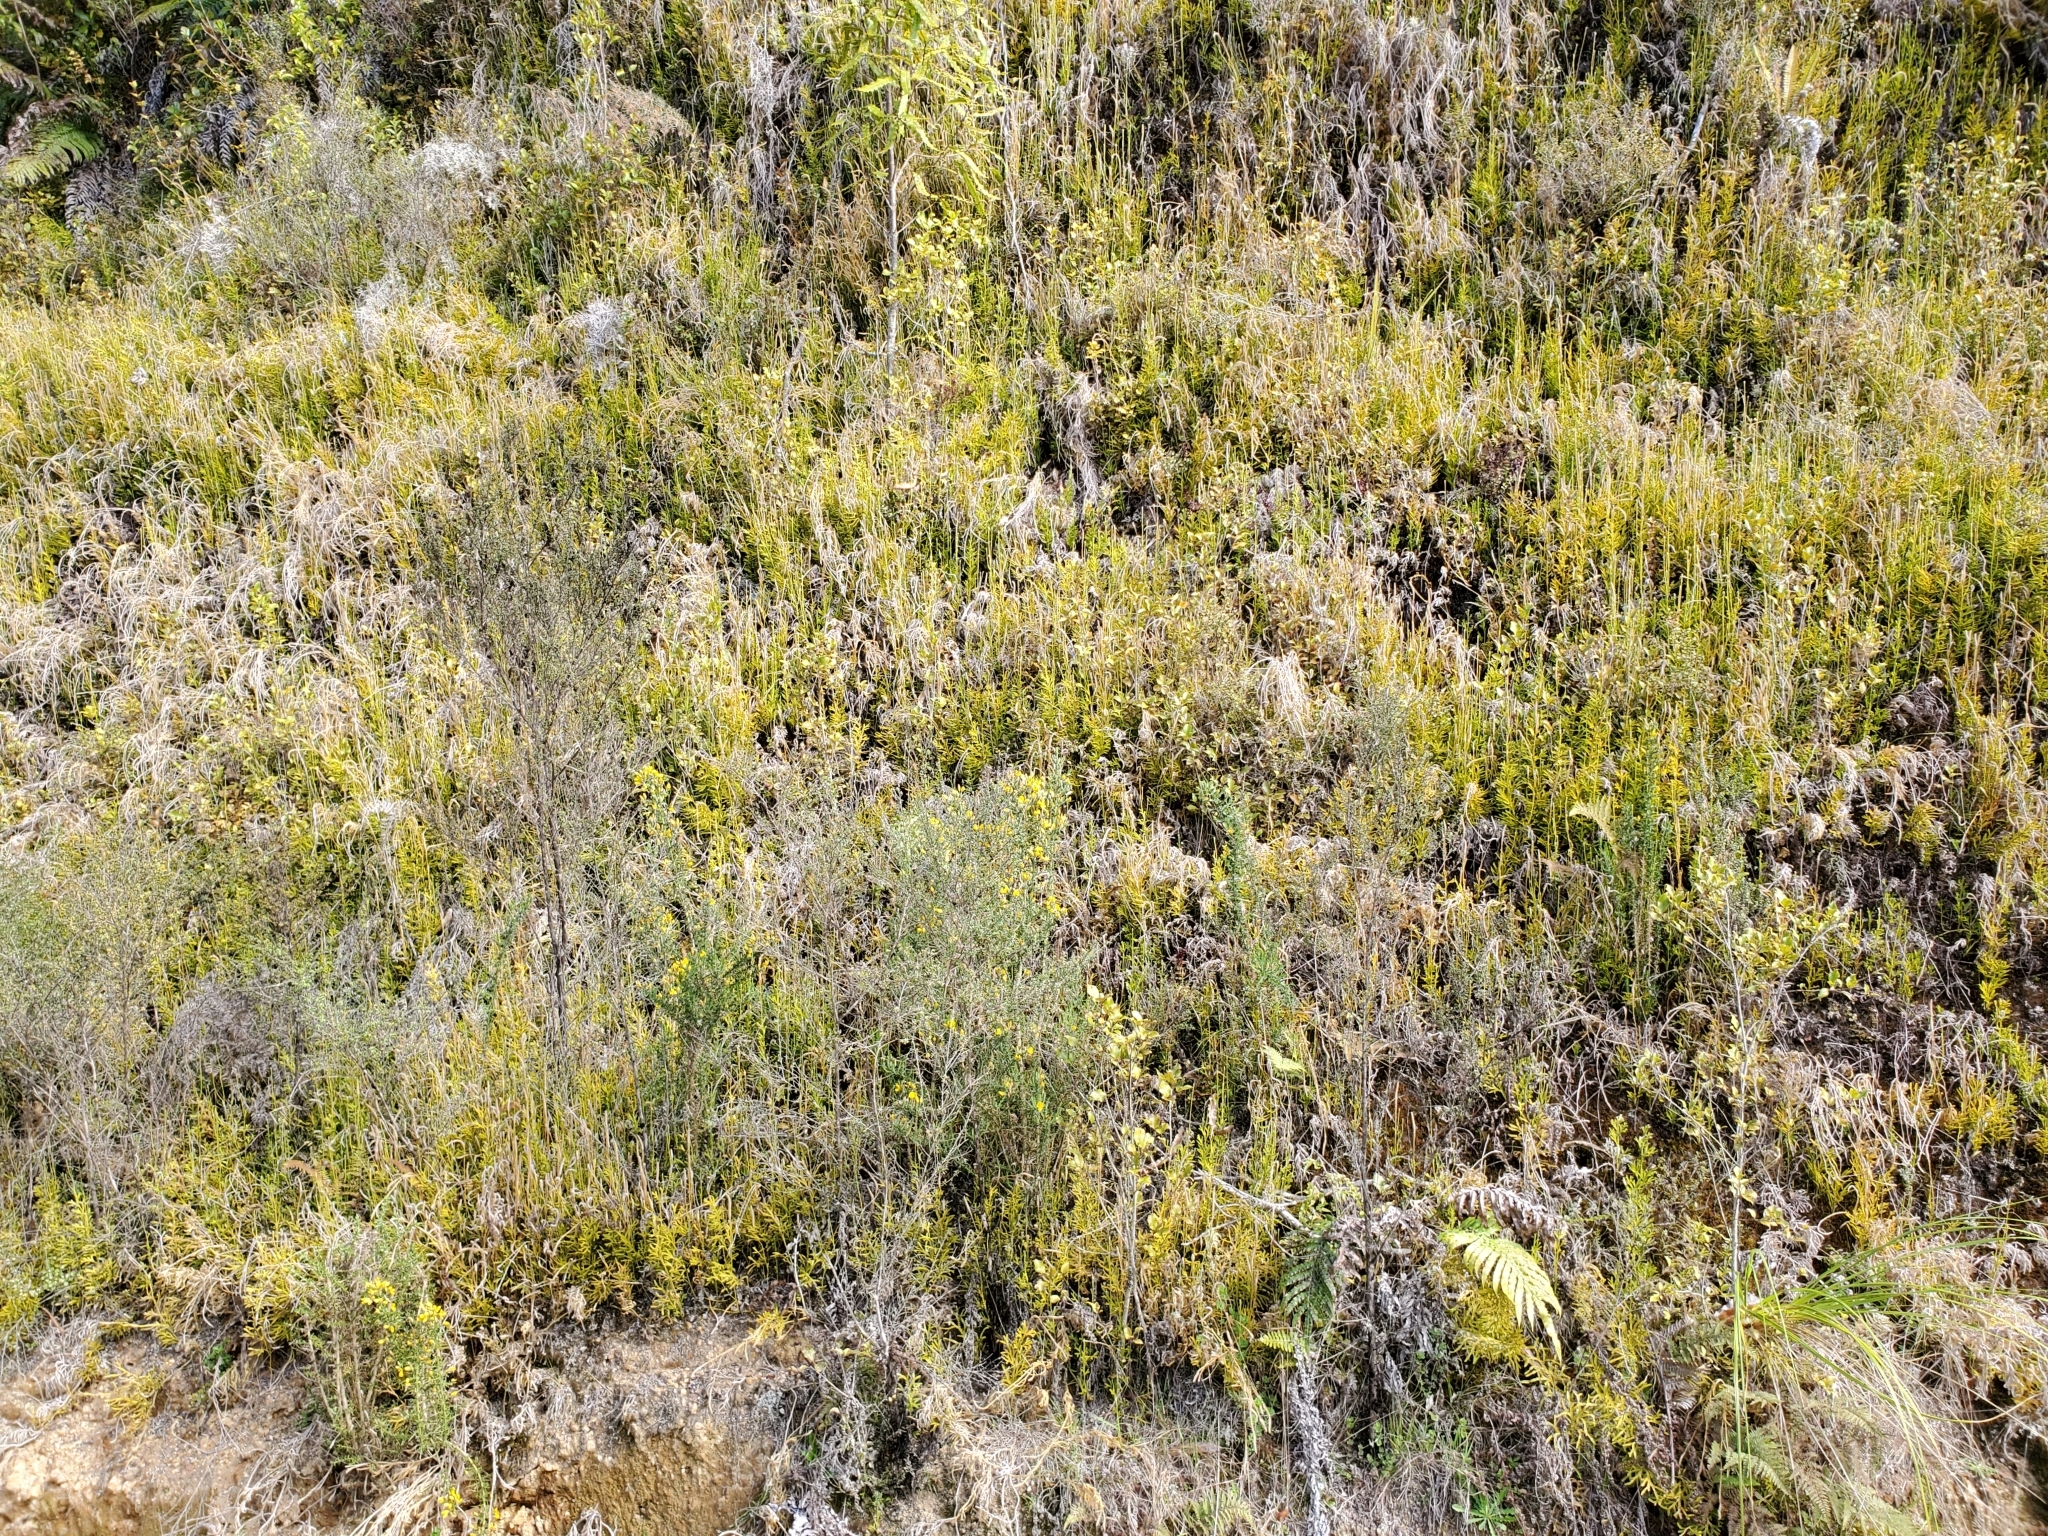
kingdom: Plantae
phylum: Tracheophyta
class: Lycopodiopsida
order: Lycopodiales
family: Lycopodiaceae
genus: Diphasium
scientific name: Diphasium scariosum
